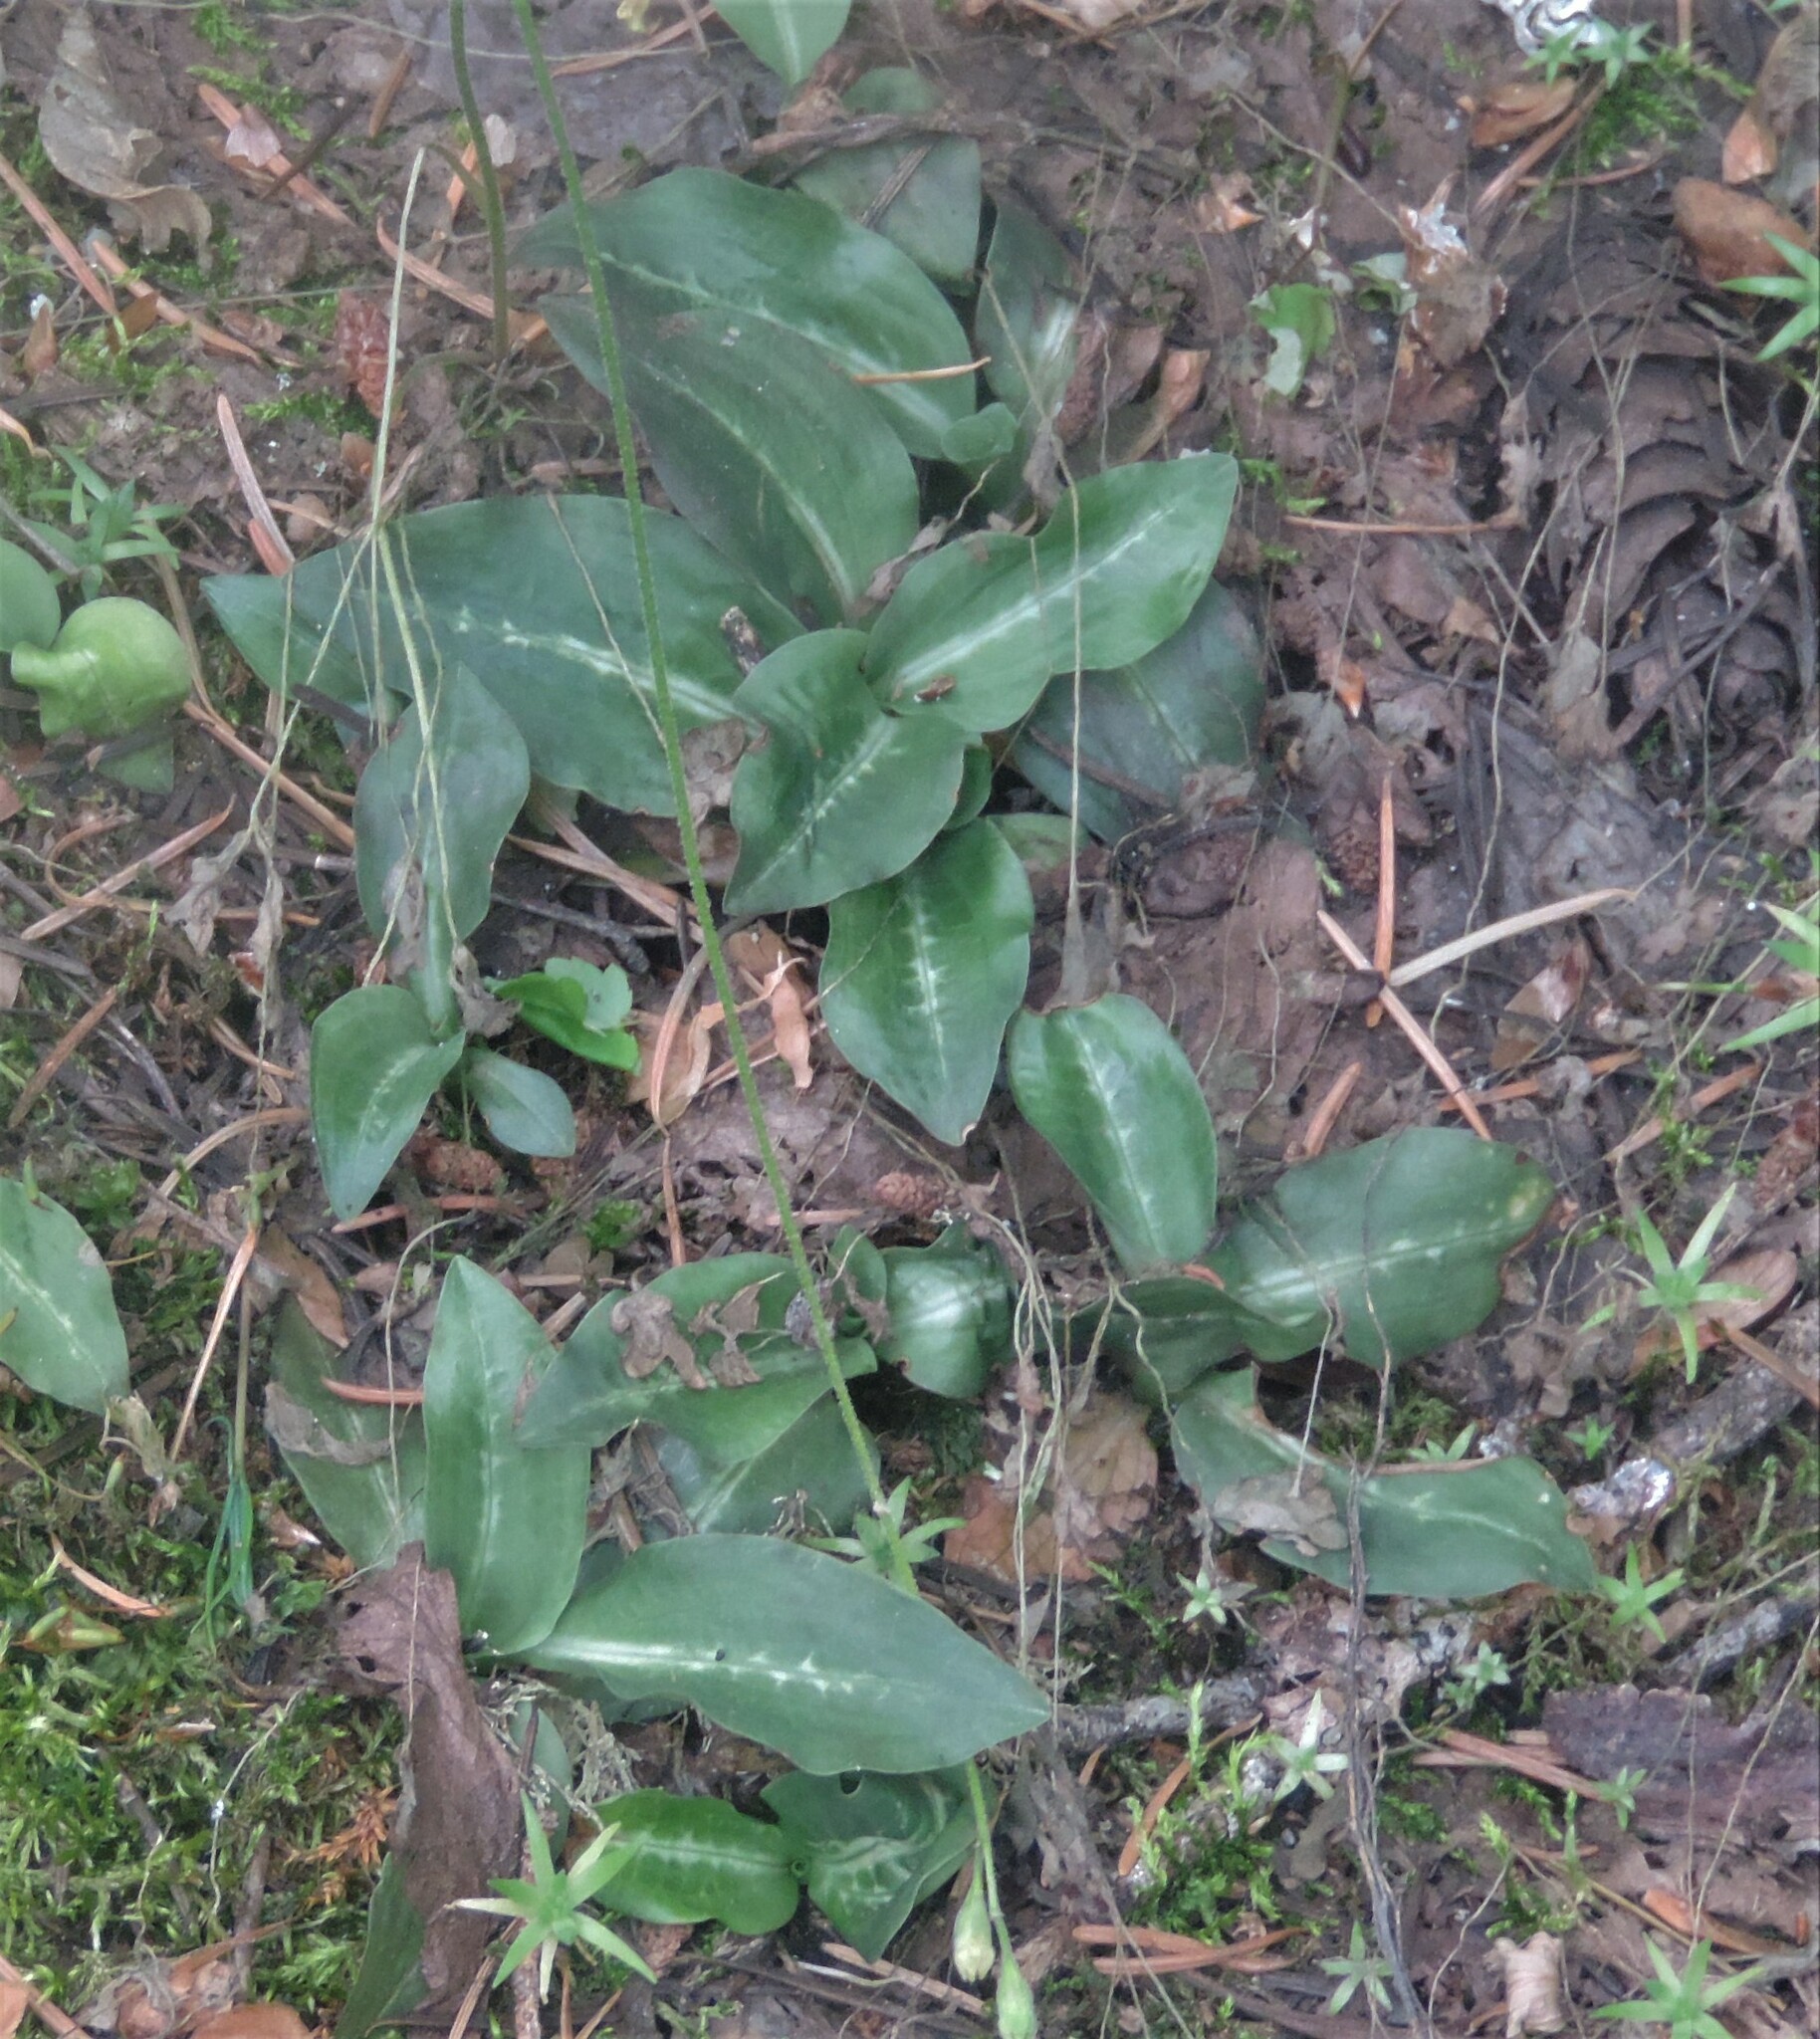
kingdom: Plantae
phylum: Tracheophyta
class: Liliopsida
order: Asparagales
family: Orchidaceae
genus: Goodyera
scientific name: Goodyera oblongifolia
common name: Giant rattlesnake-plantain
